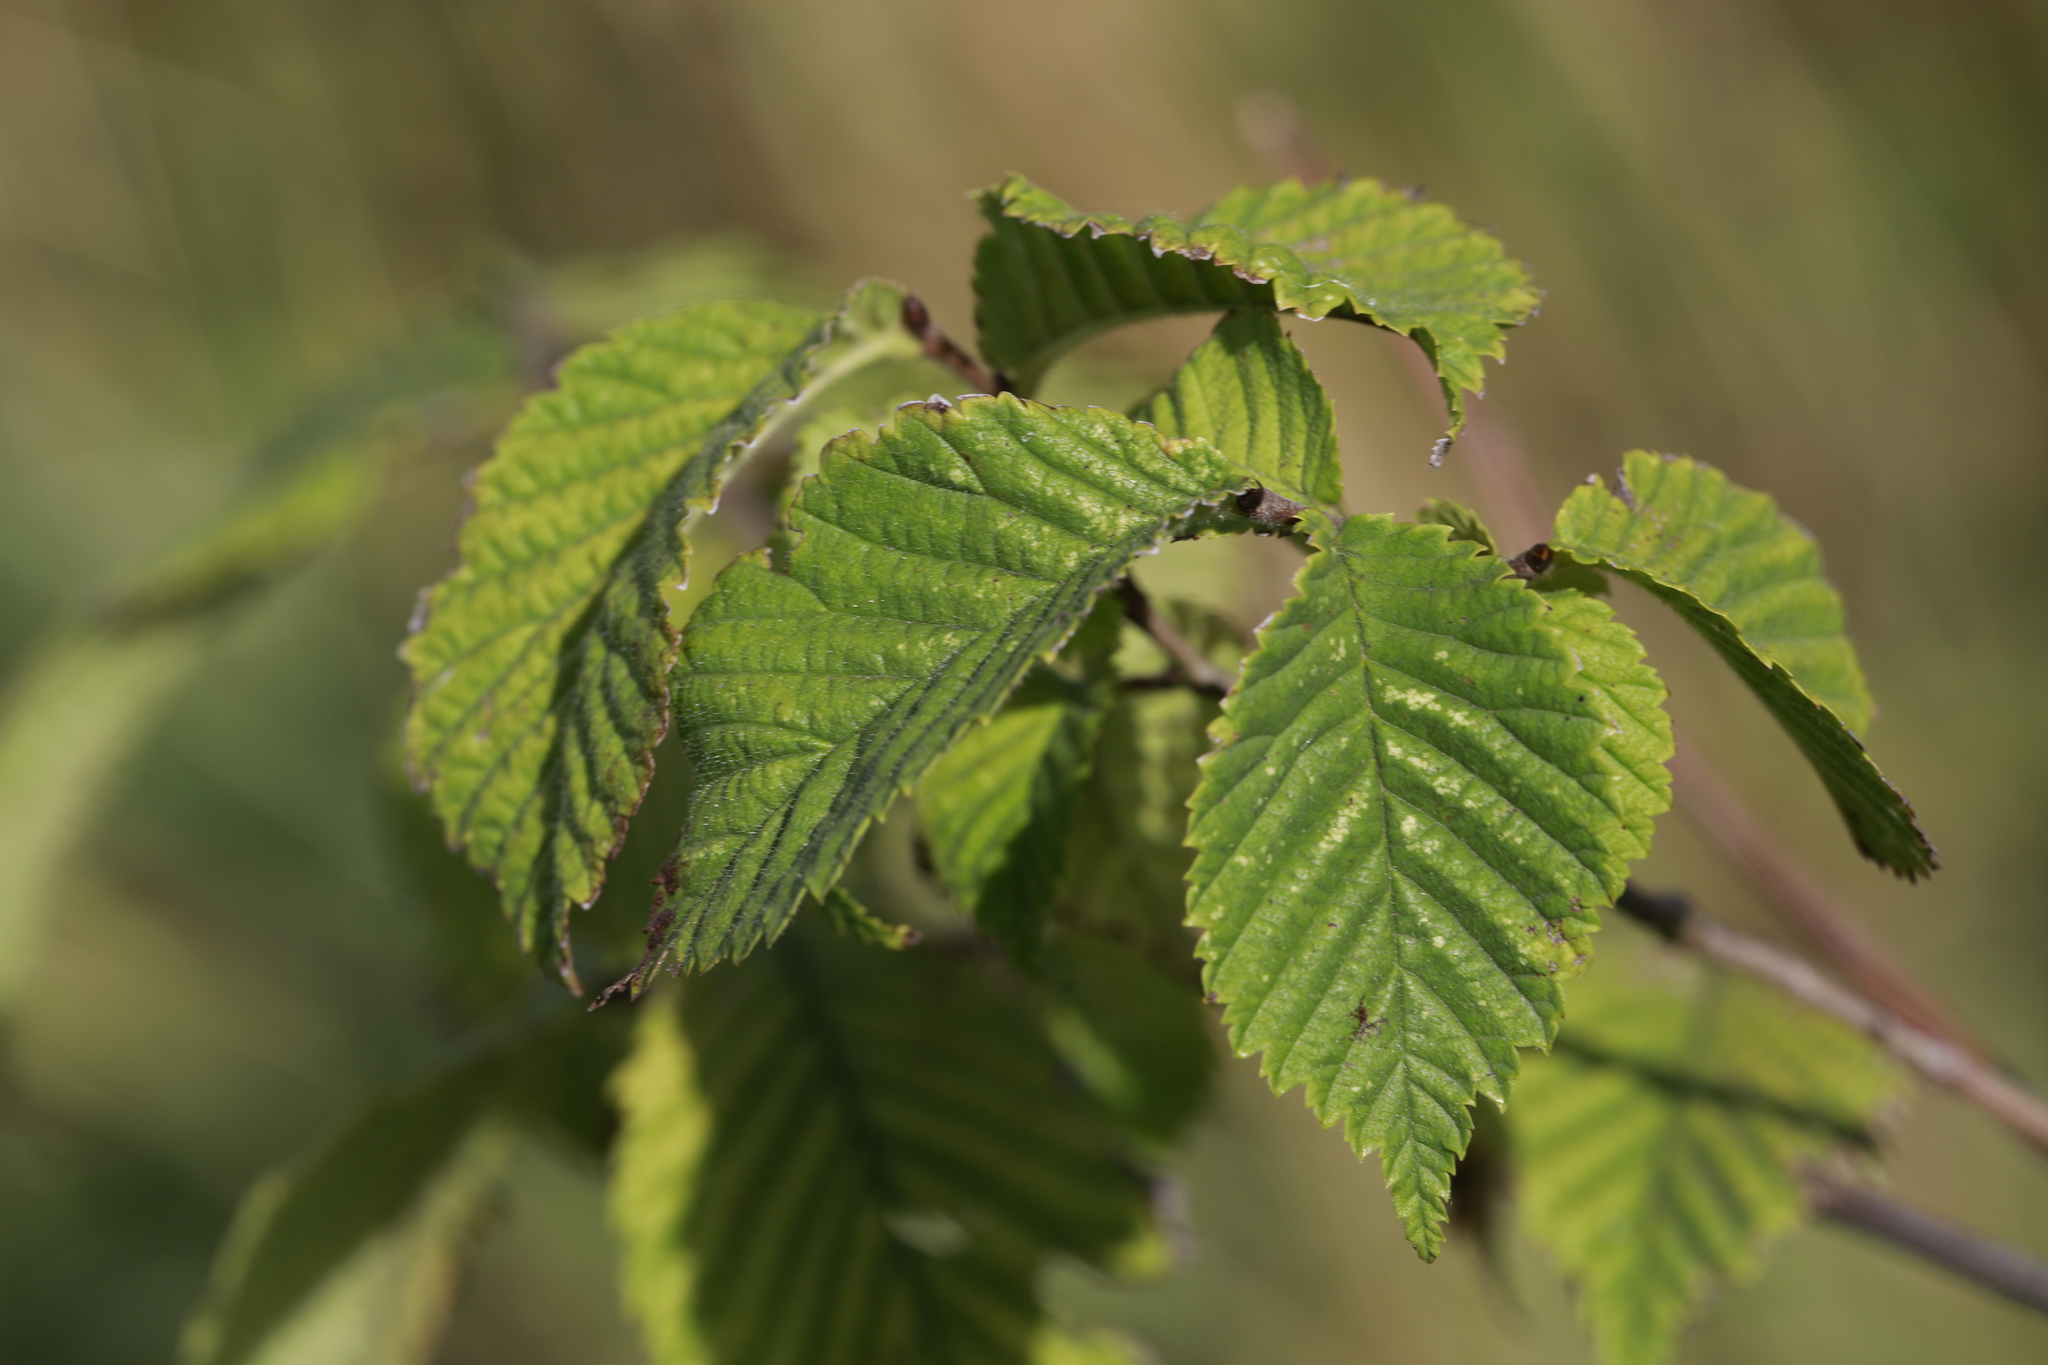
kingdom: Plantae
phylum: Tracheophyta
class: Magnoliopsida
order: Fagales
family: Betulaceae
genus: Carpinus
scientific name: Carpinus betulus
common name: Hornbeam
